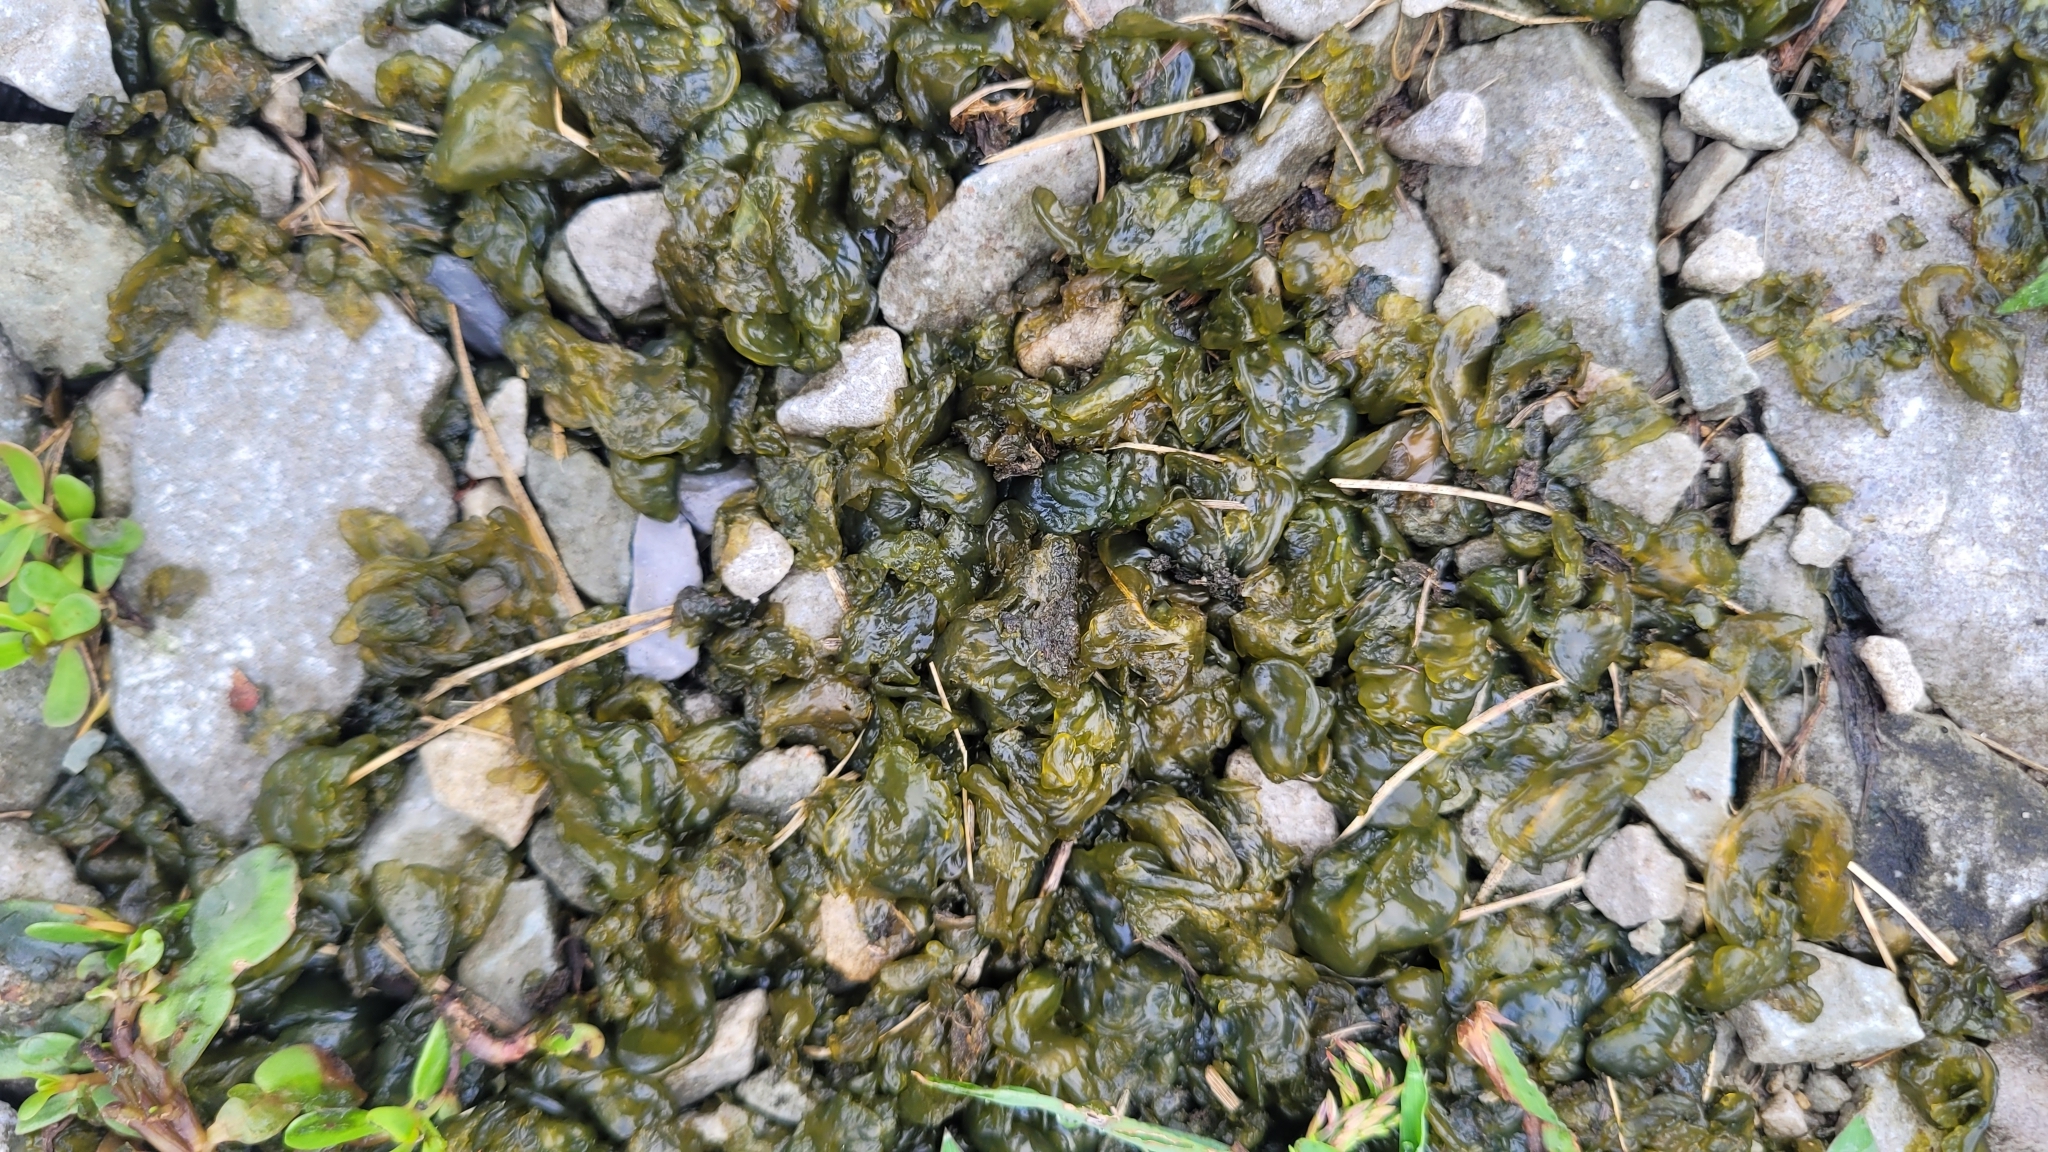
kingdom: Bacteria
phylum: Cyanobacteria
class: Cyanobacteriia
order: Cyanobacteriales
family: Nostocaceae
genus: Nostoc
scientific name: Nostoc commune
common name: Star jelly
